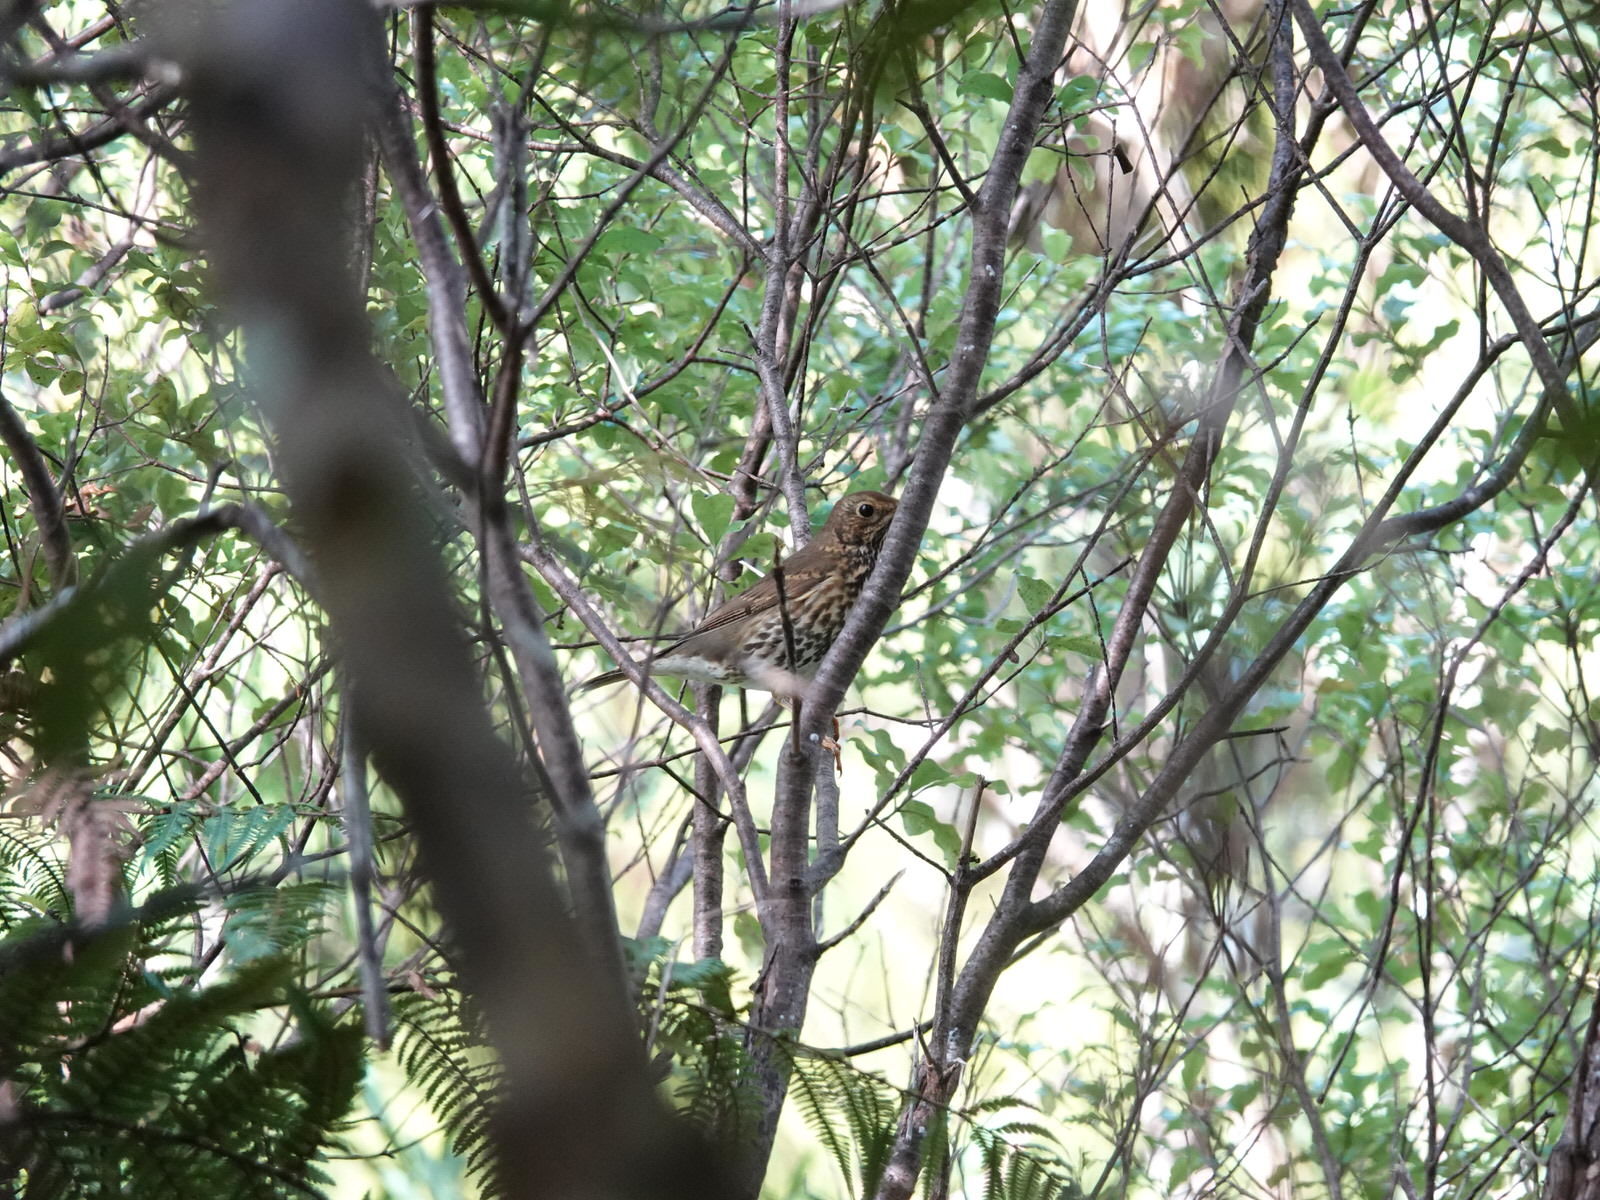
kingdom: Animalia
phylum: Chordata
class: Aves
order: Passeriformes
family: Turdidae
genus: Turdus
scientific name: Turdus philomelos
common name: Song thrush
